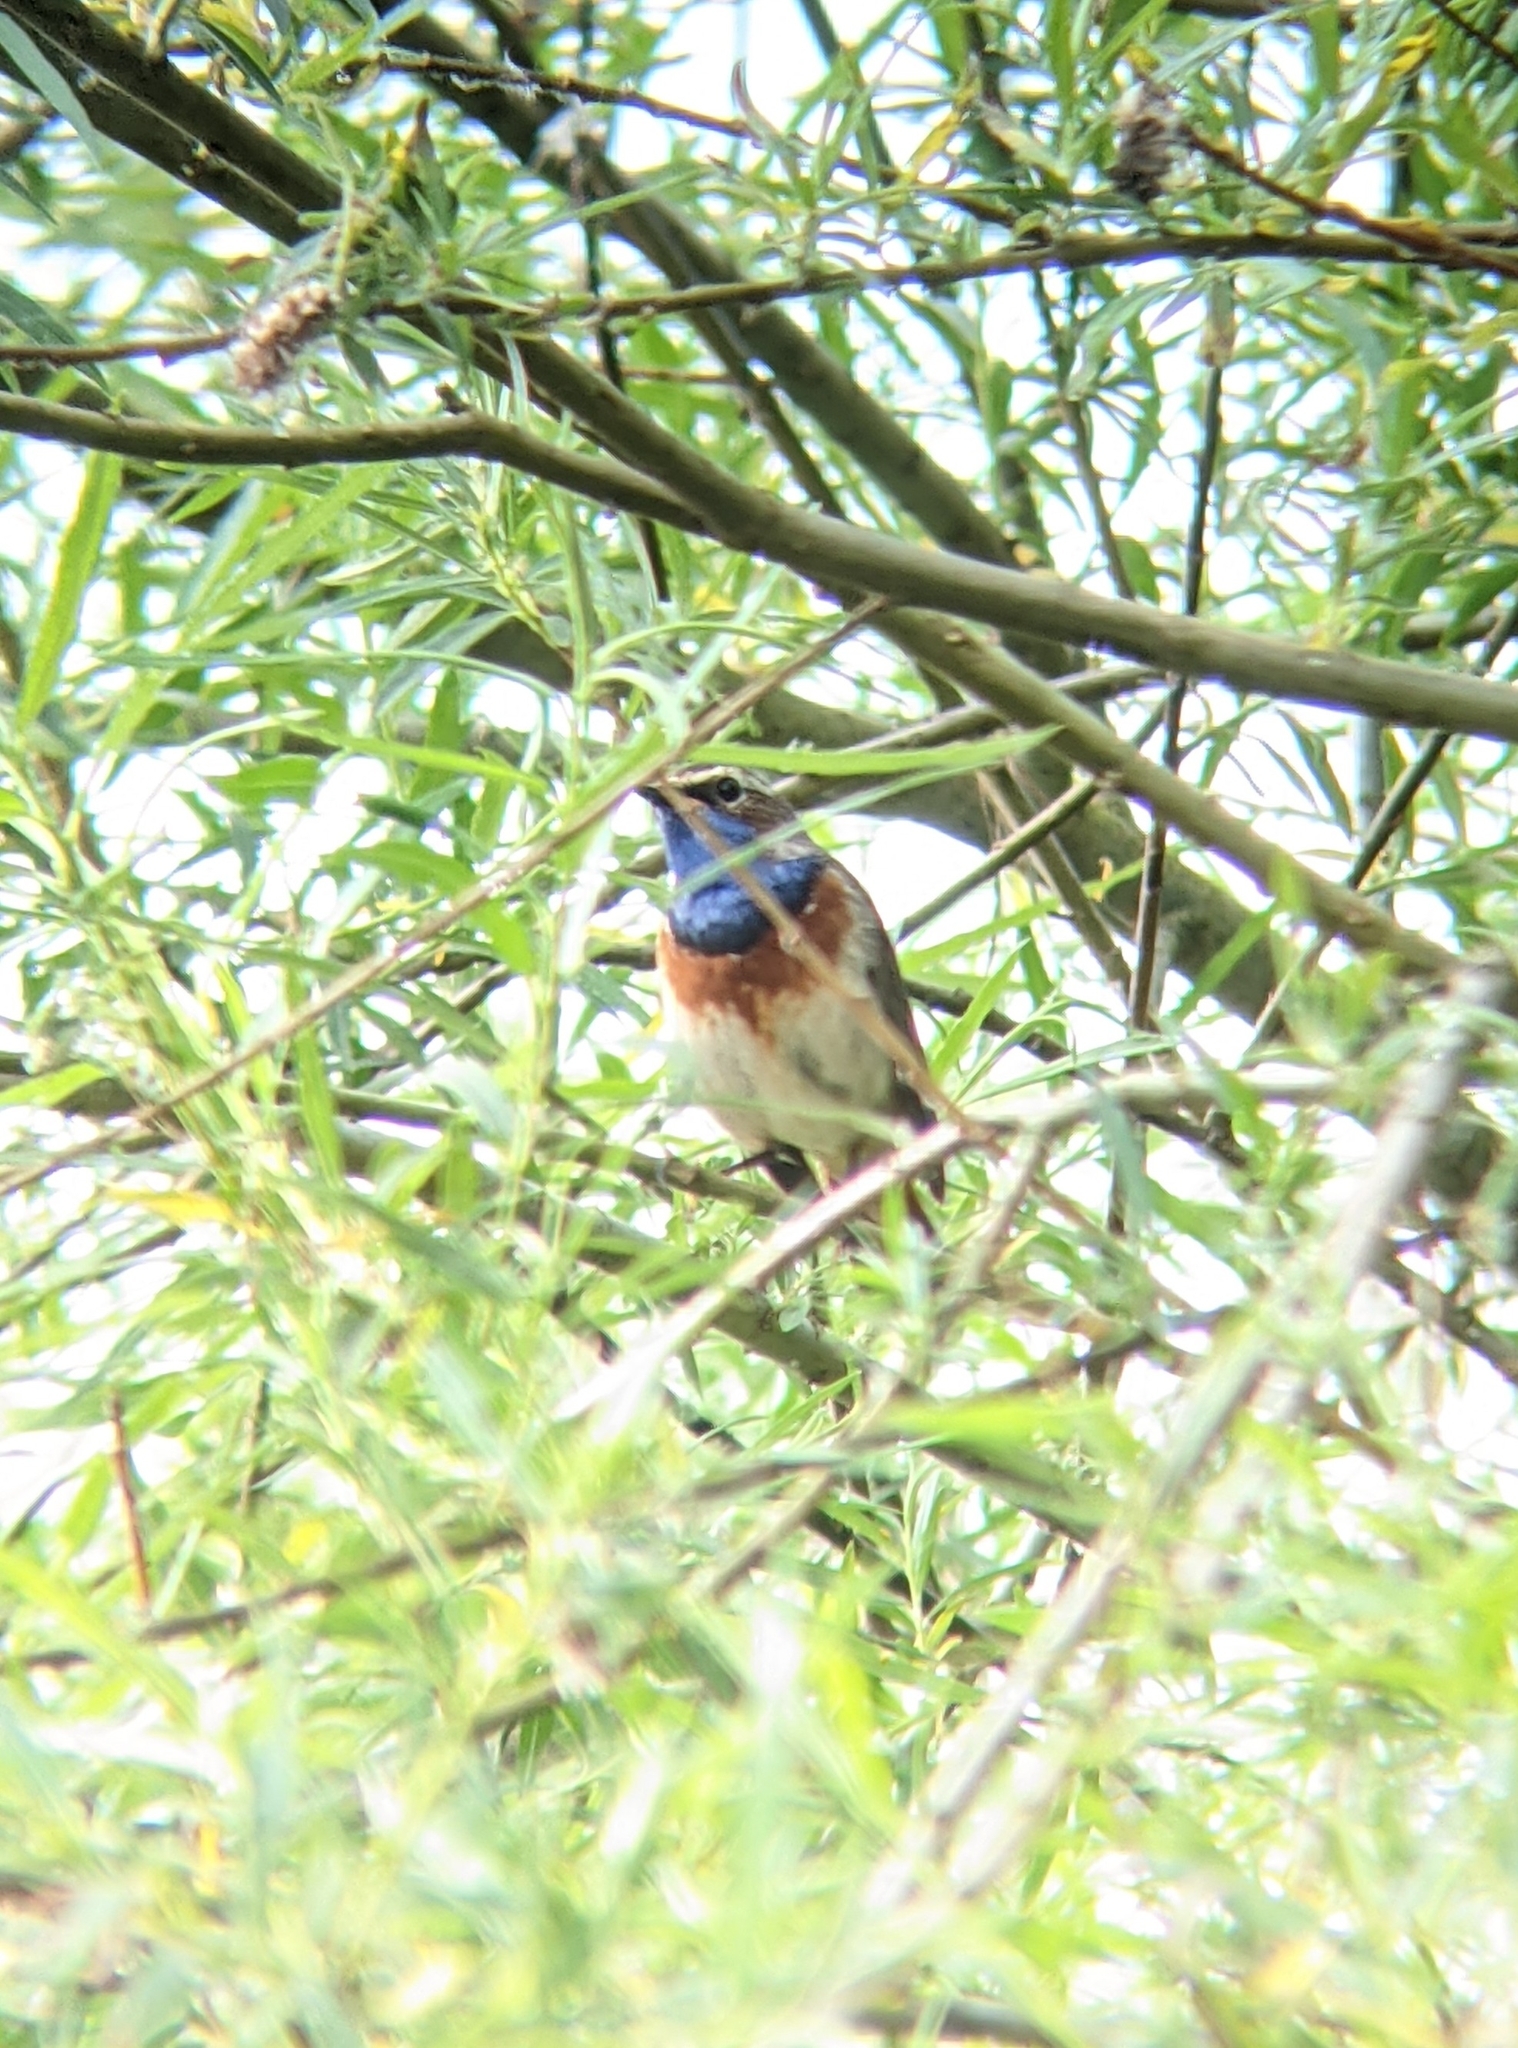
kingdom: Animalia
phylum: Chordata
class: Aves
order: Passeriformes
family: Muscicapidae
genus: Luscinia
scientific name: Luscinia svecica
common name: Bluethroat
